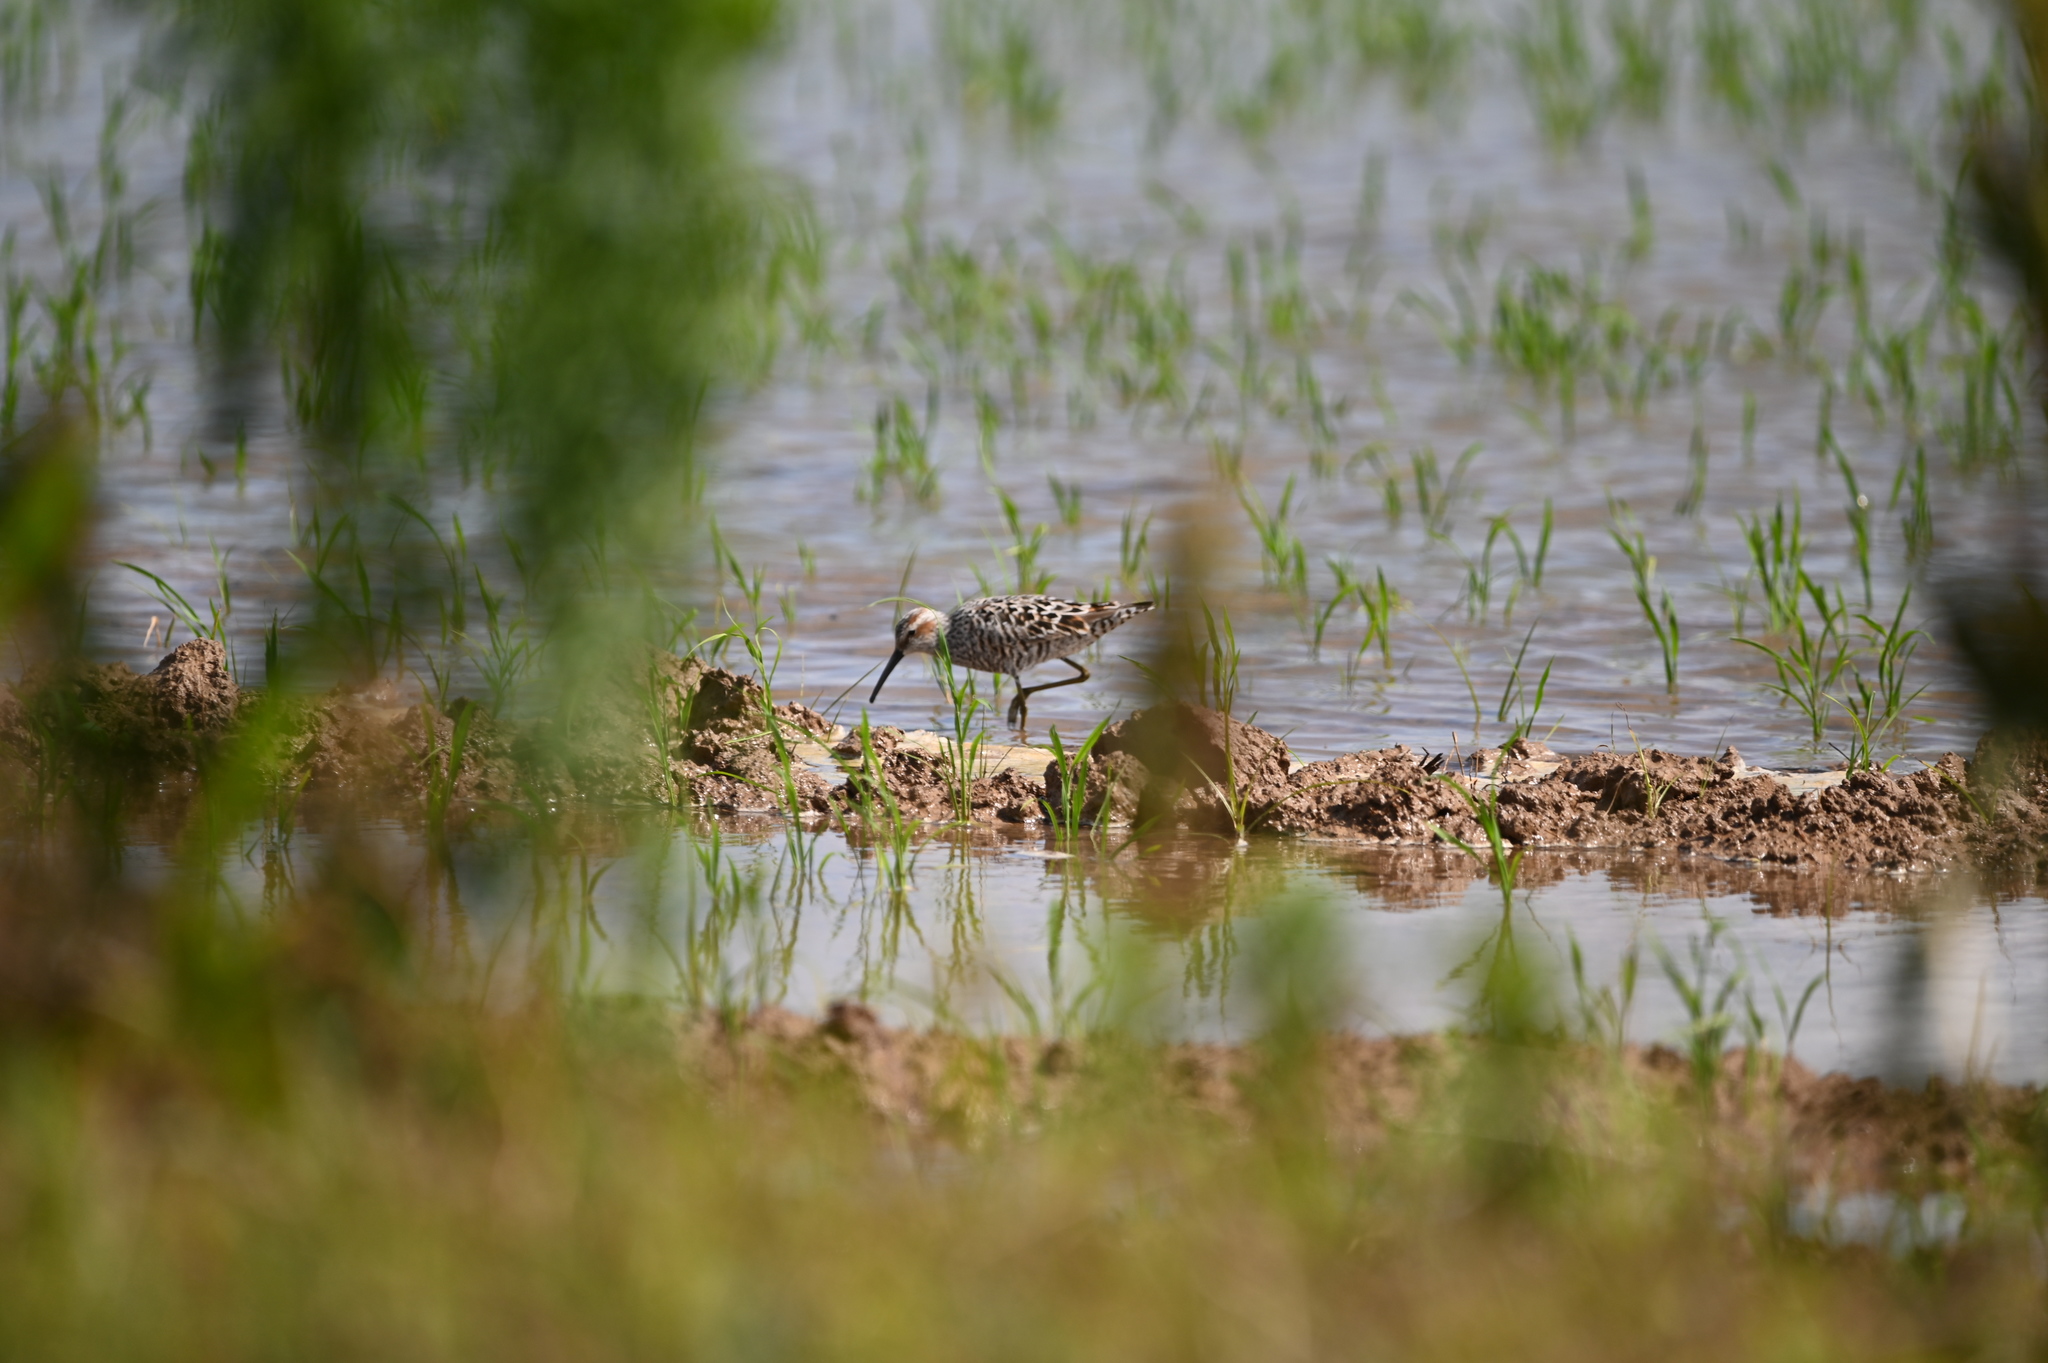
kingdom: Animalia
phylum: Chordata
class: Aves
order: Charadriiformes
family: Scolopacidae
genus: Calidris
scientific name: Calidris himantopus
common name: Stilt sandpiper
